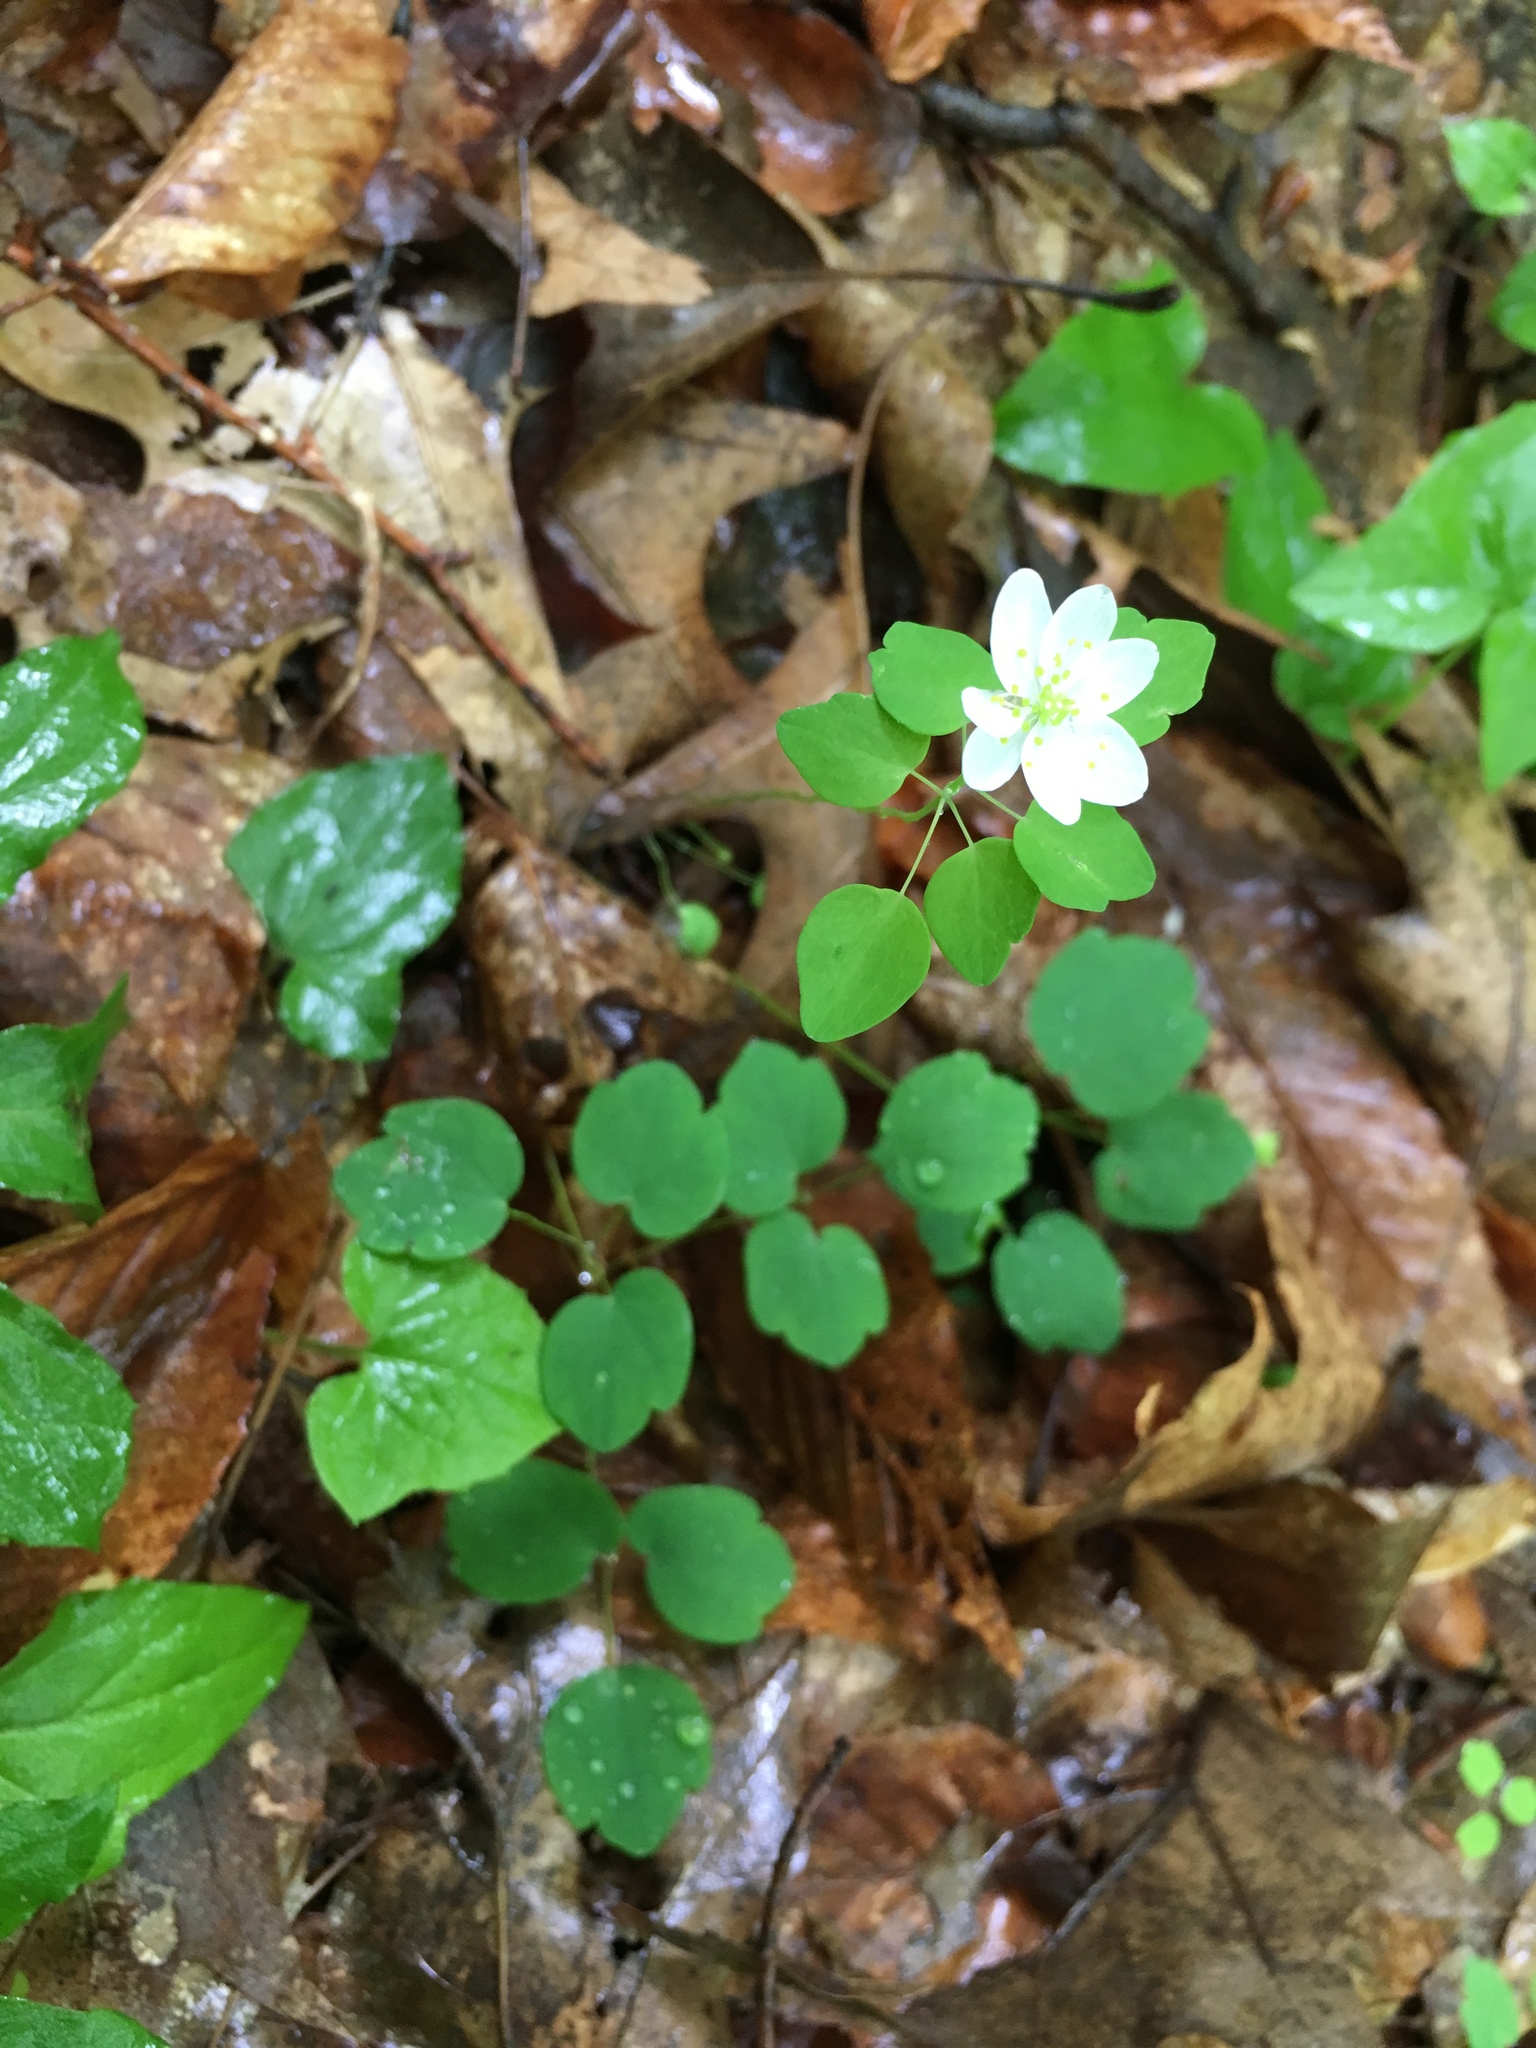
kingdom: Plantae
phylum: Tracheophyta
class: Magnoliopsida
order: Ranunculales
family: Ranunculaceae
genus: Thalictrum
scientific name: Thalictrum thalictroides
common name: Rue-anemone
